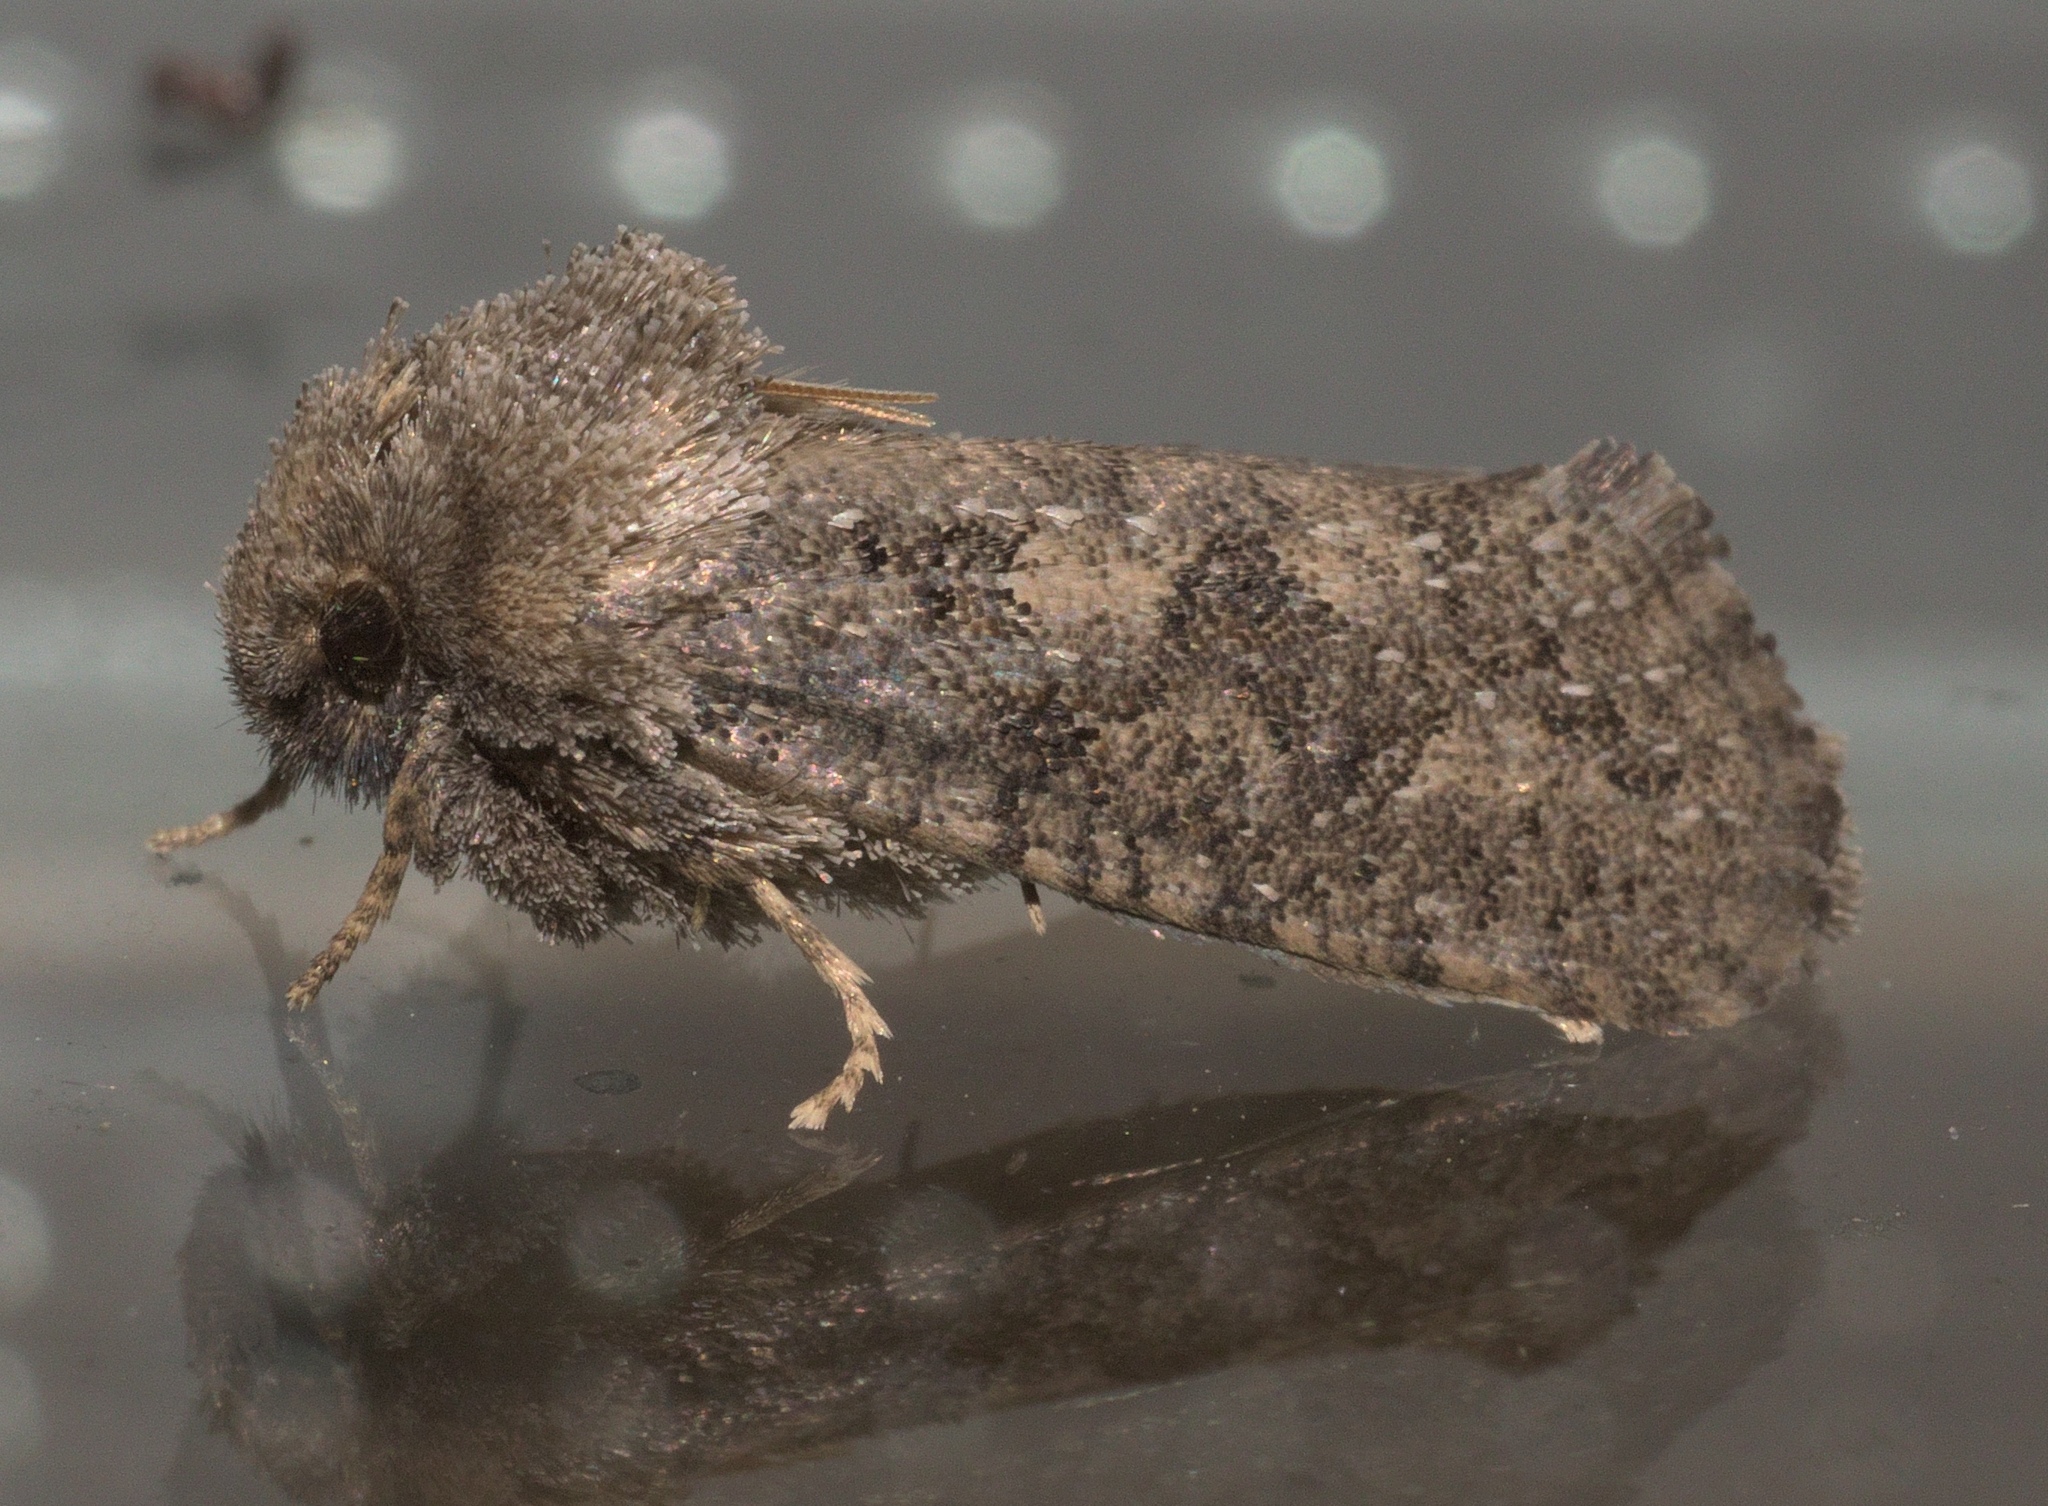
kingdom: Animalia
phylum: Arthropoda
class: Insecta
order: Lepidoptera
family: Tineidae
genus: Acrolophus
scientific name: Acrolophus arcanella
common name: Arcane grass tubeworm moth
